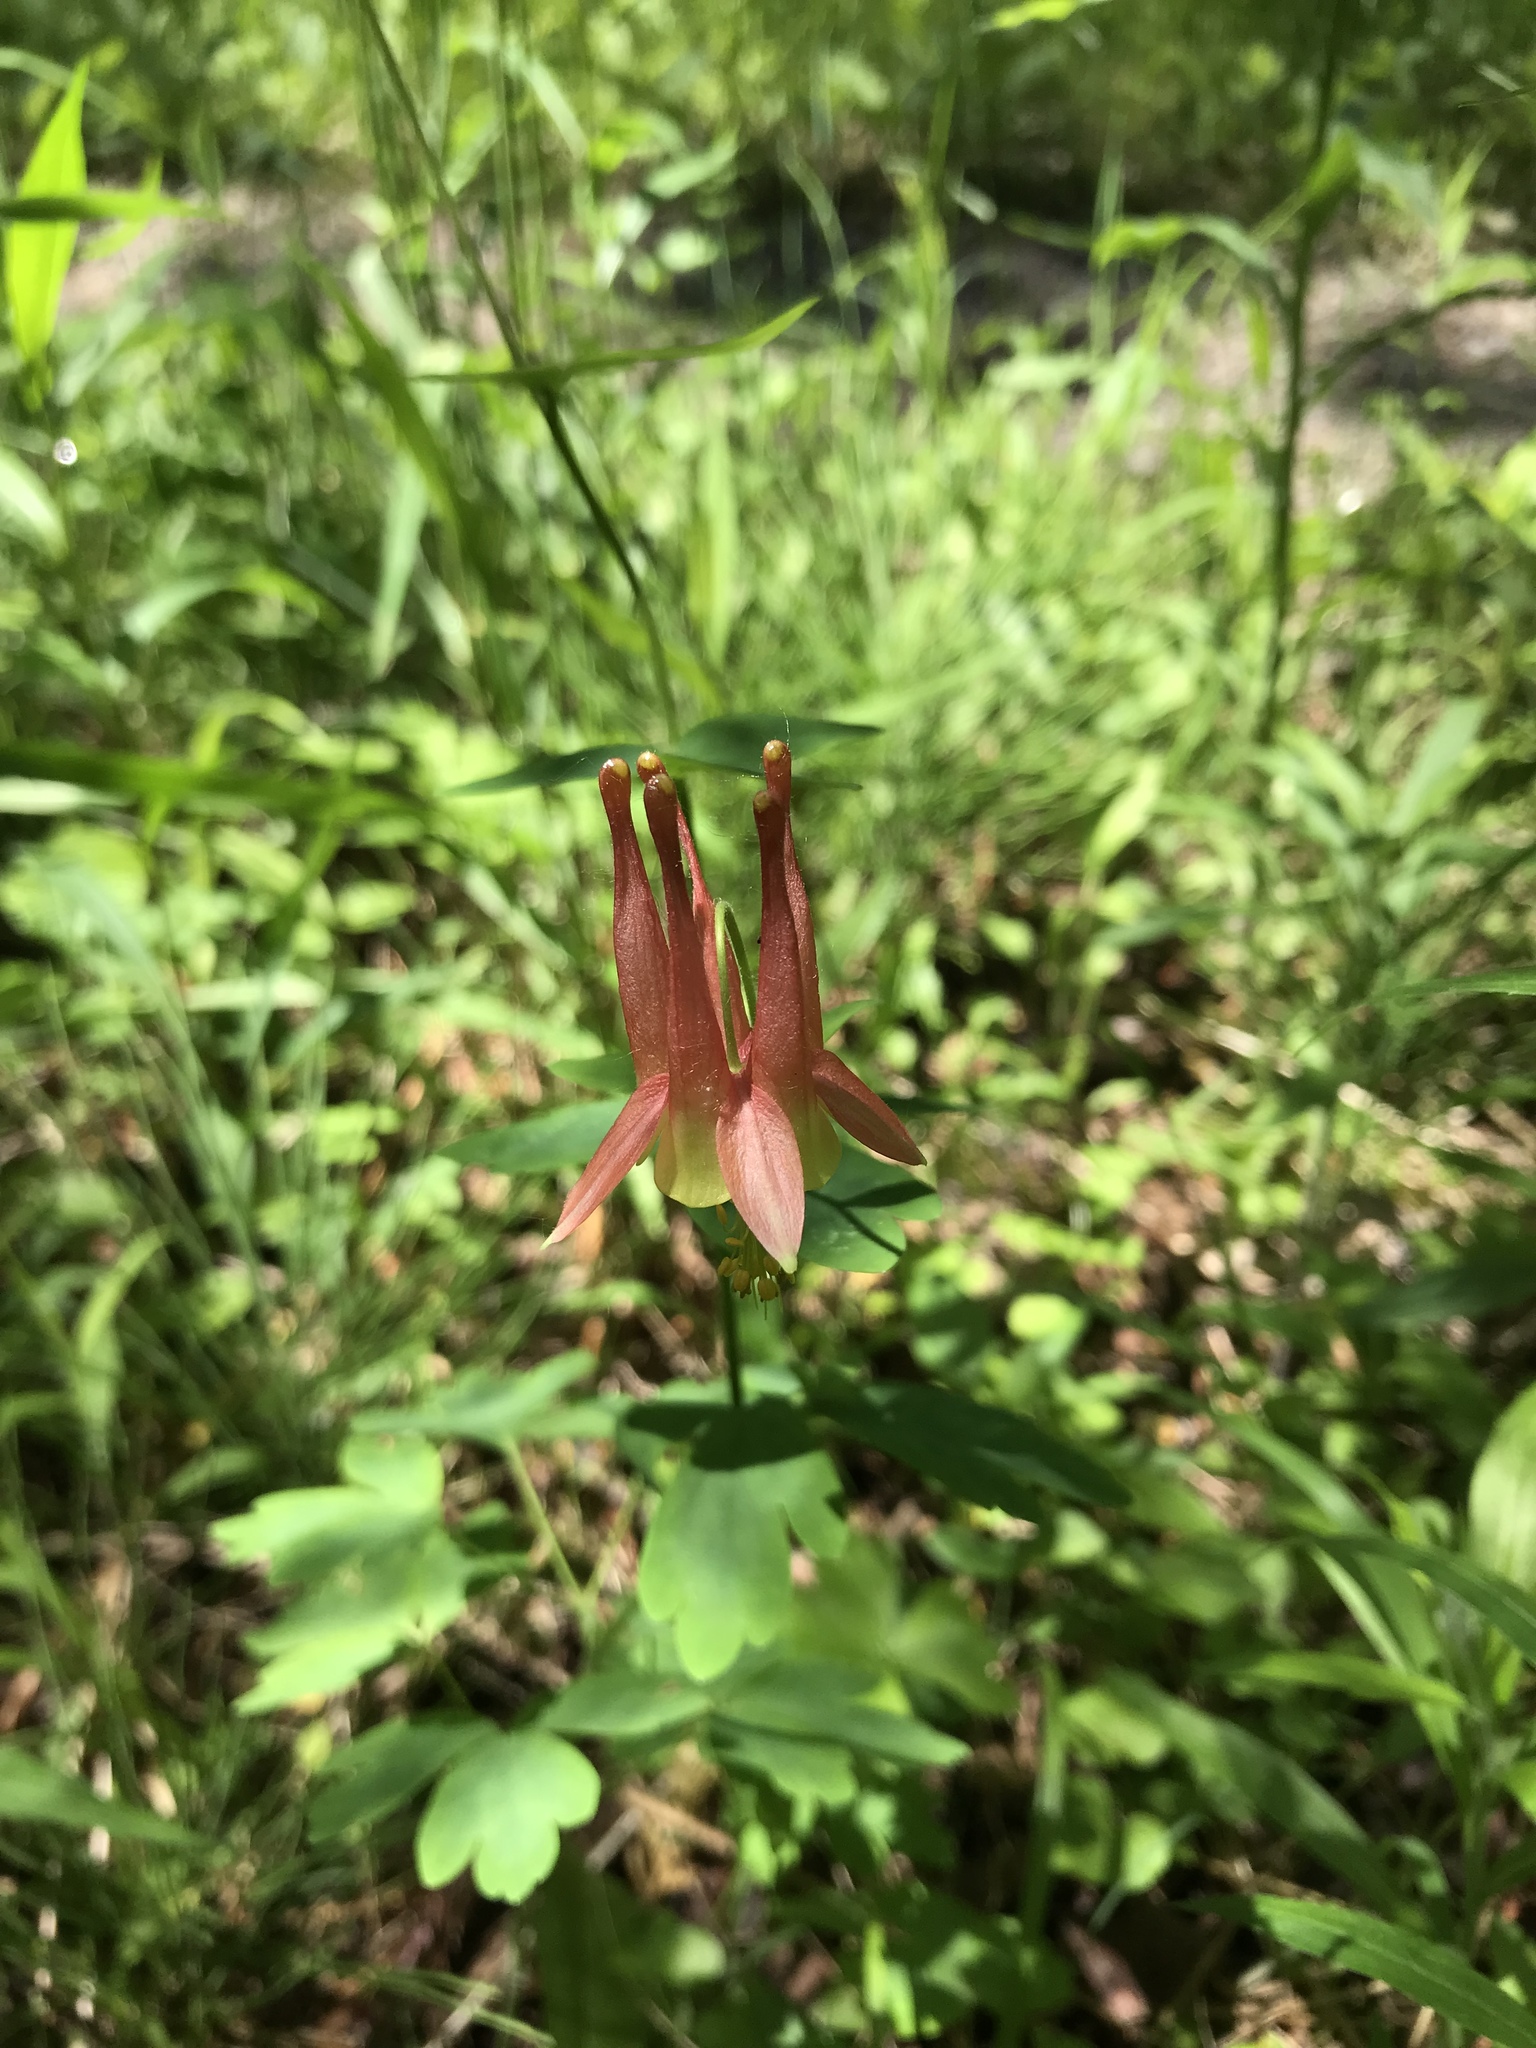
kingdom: Plantae
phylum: Tracheophyta
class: Magnoliopsida
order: Ranunculales
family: Ranunculaceae
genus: Aquilegia
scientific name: Aquilegia canadensis
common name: American columbine
